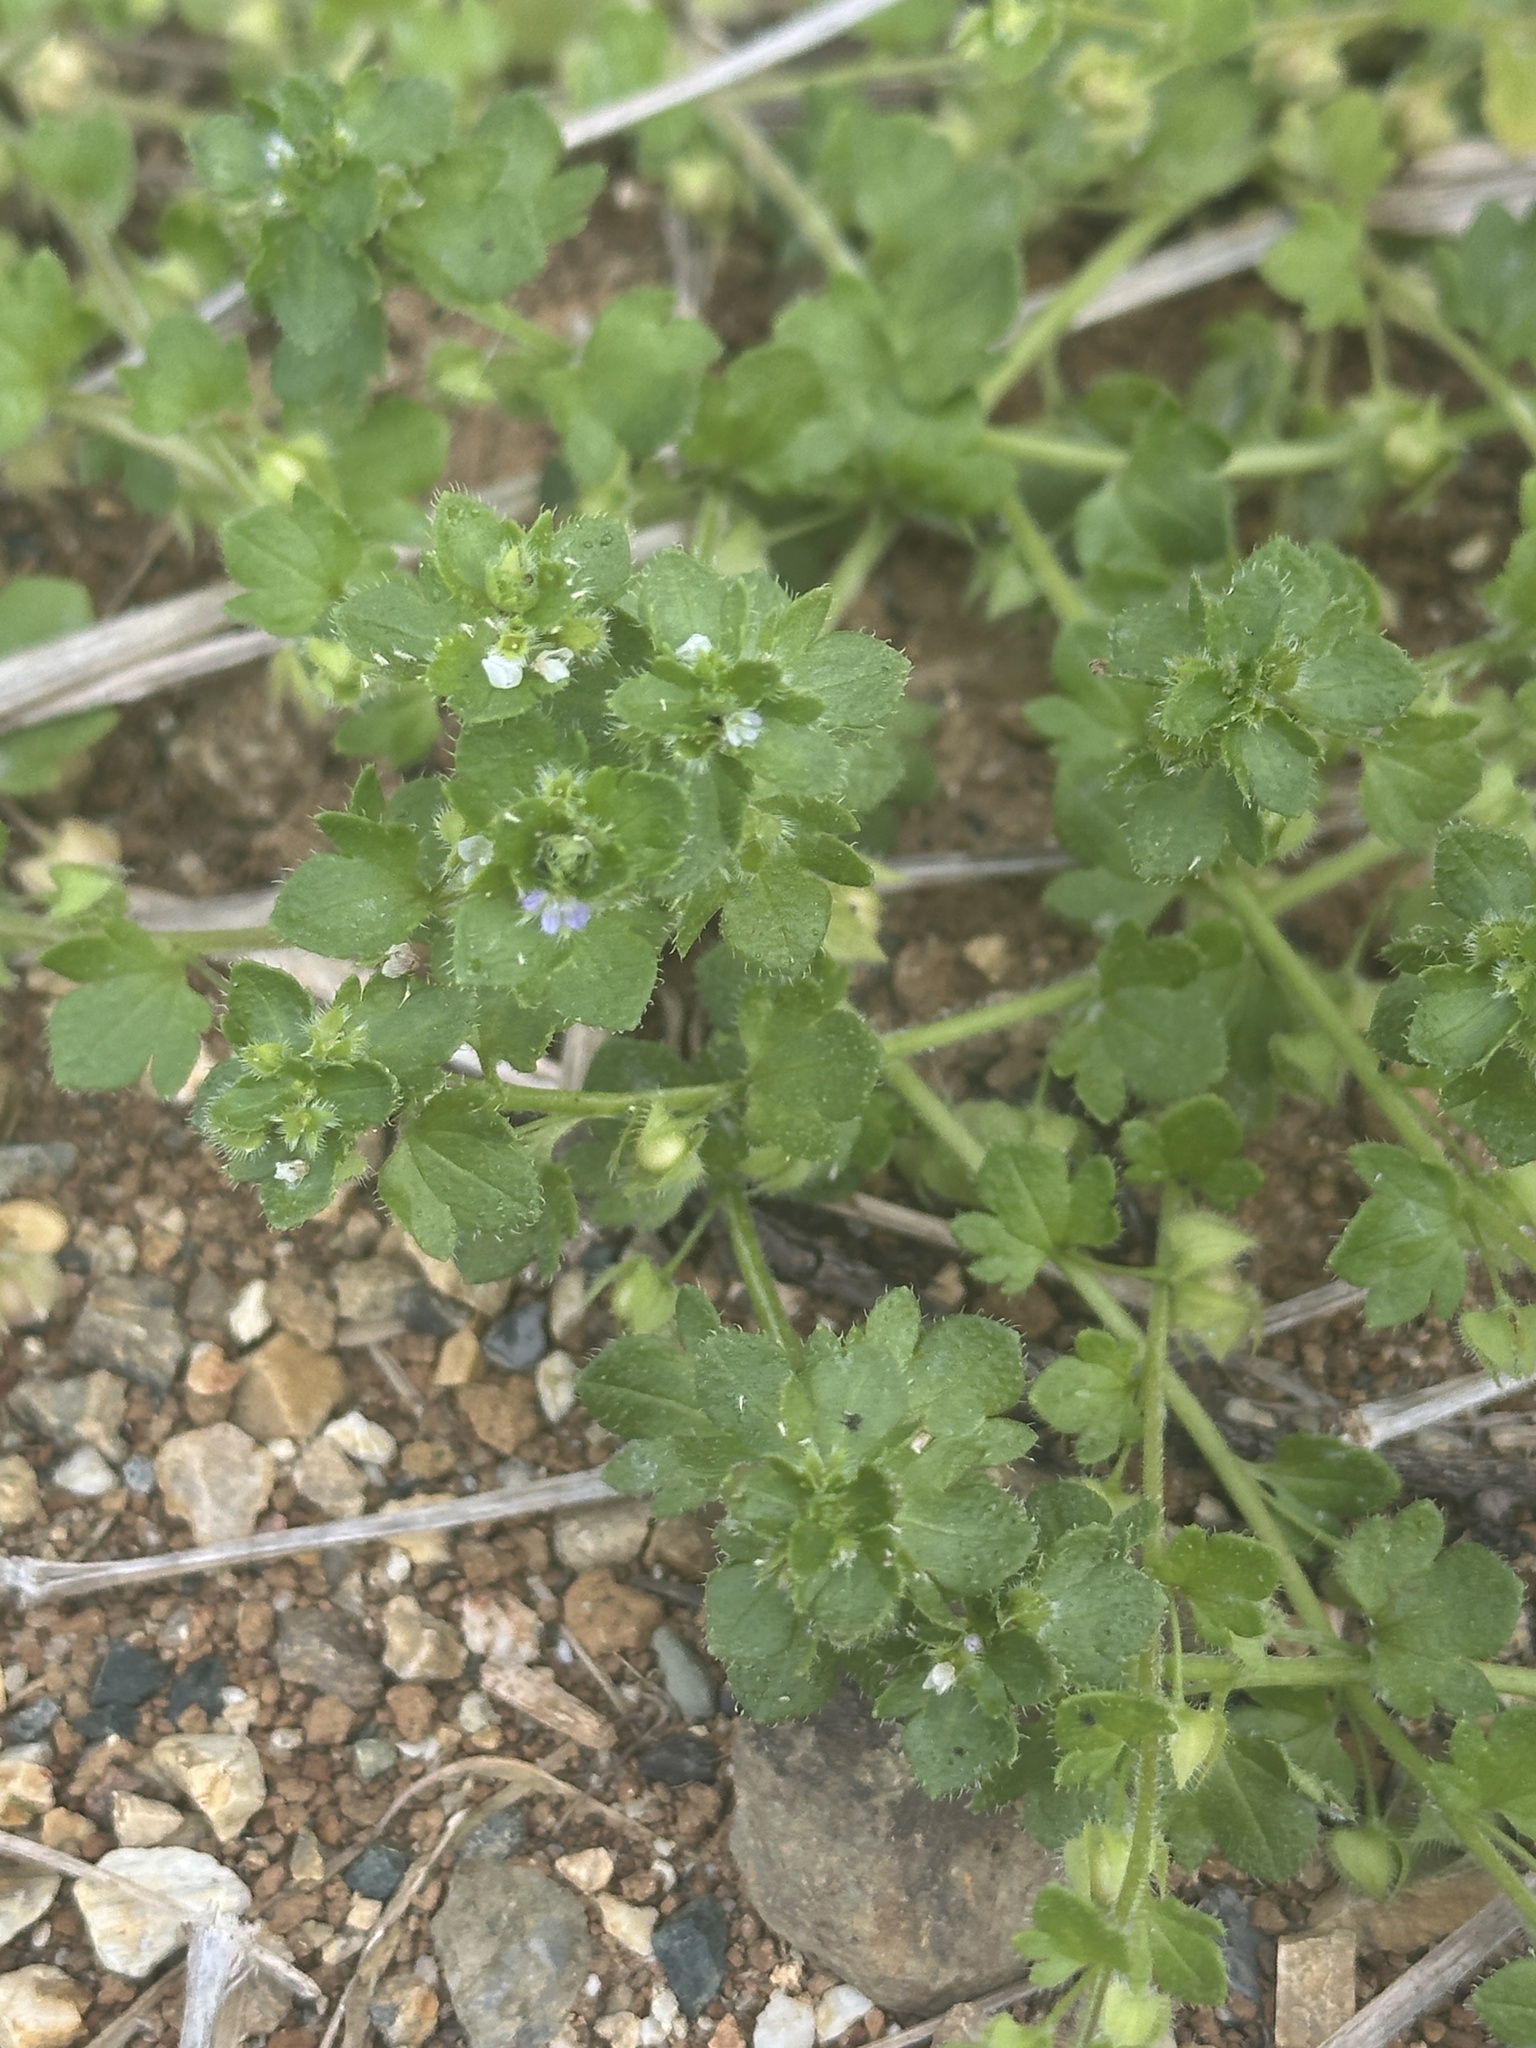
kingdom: Plantae
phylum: Tracheophyta
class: Magnoliopsida
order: Lamiales
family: Plantaginaceae
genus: Veronica
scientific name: Veronica hederifolia
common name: Ivy-leaved speedwell
